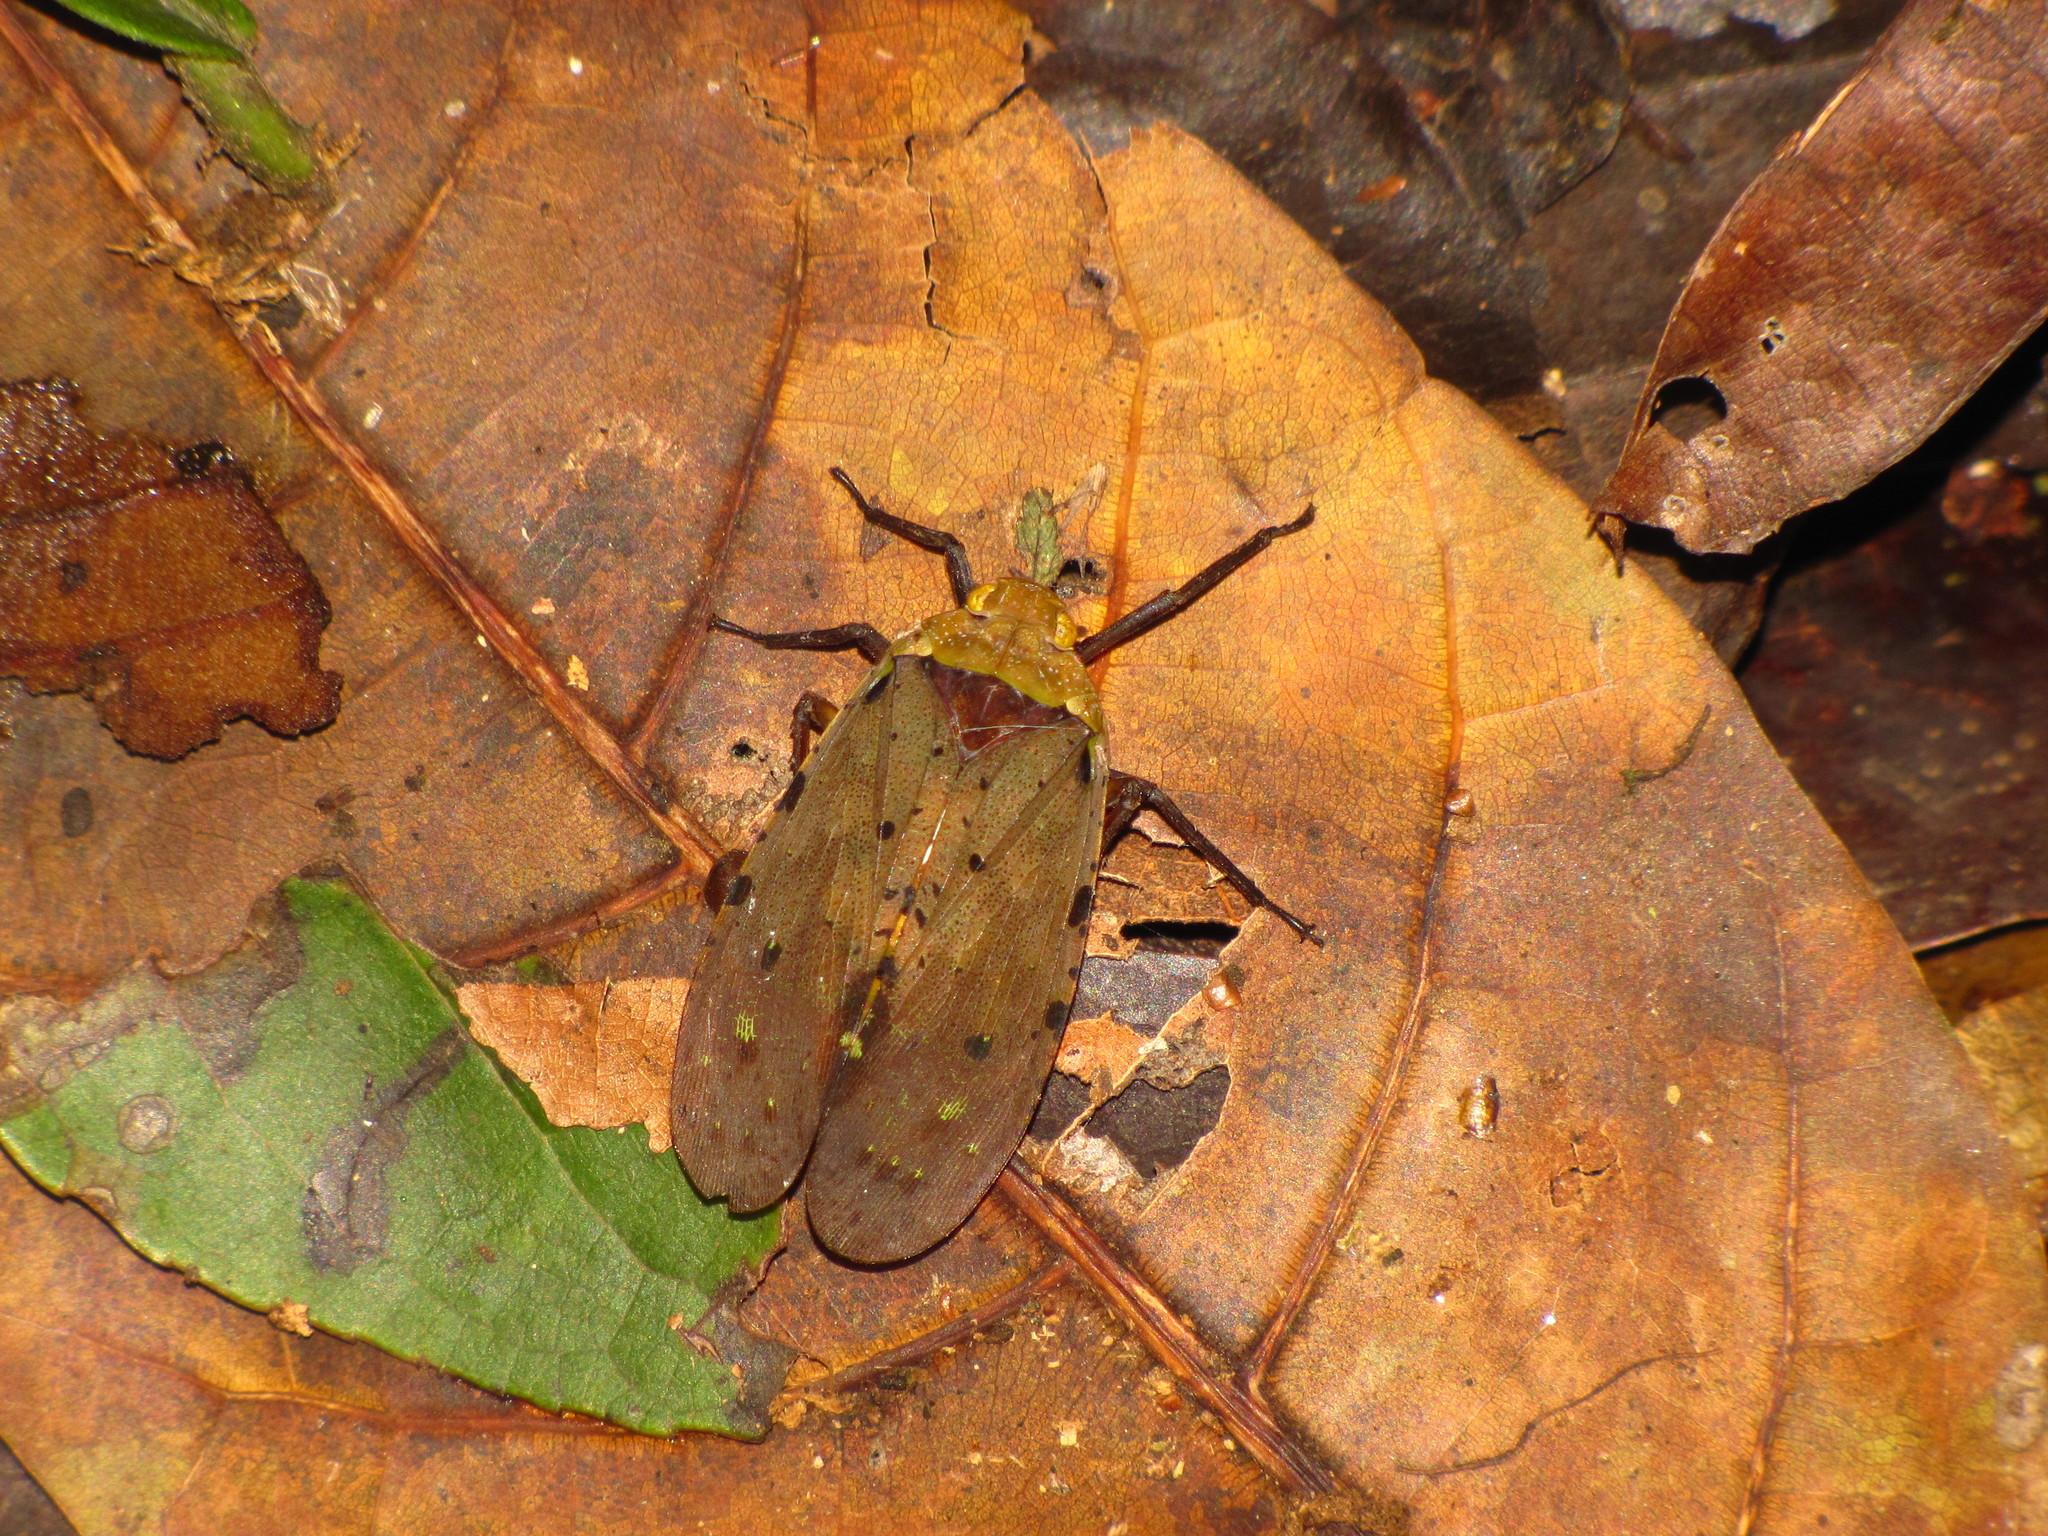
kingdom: Animalia
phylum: Arthropoda
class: Insecta
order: Hemiptera
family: Fulgoridae
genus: Penthicodes
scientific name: Penthicodes atomaria
